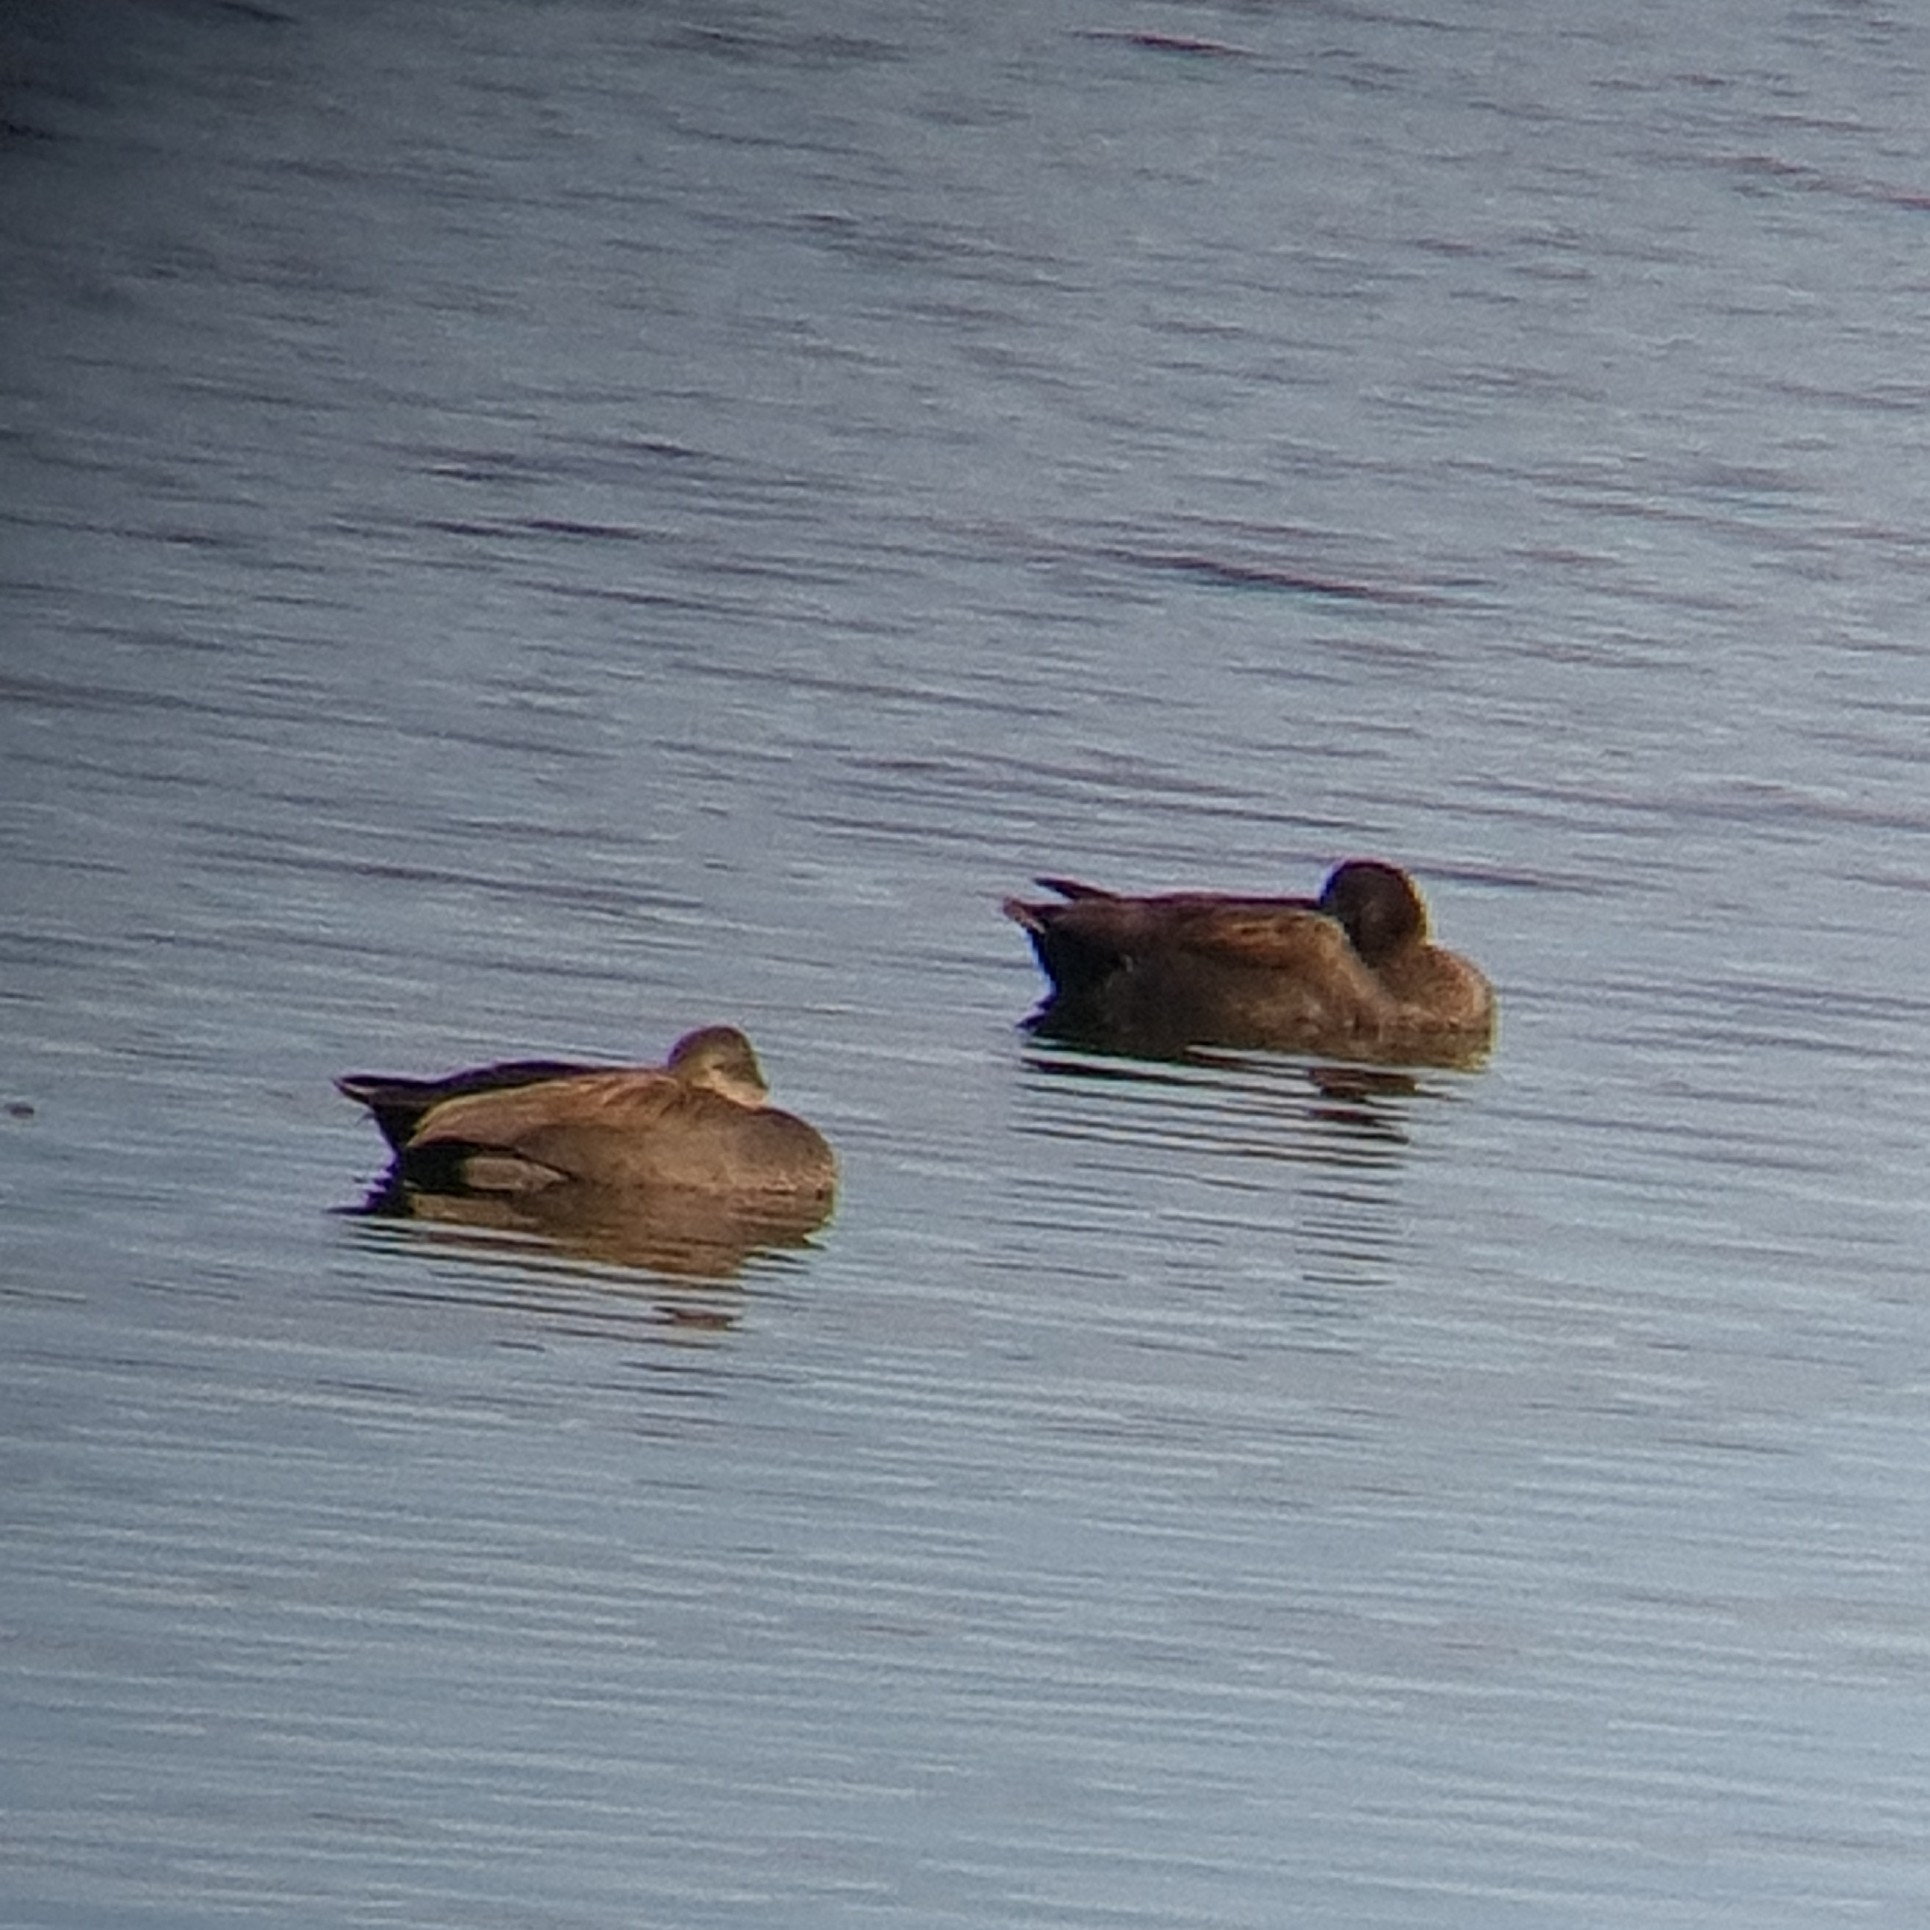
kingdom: Animalia
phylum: Chordata
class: Aves
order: Anseriformes
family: Anatidae
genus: Mareca
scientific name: Mareca strepera
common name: Gadwall
